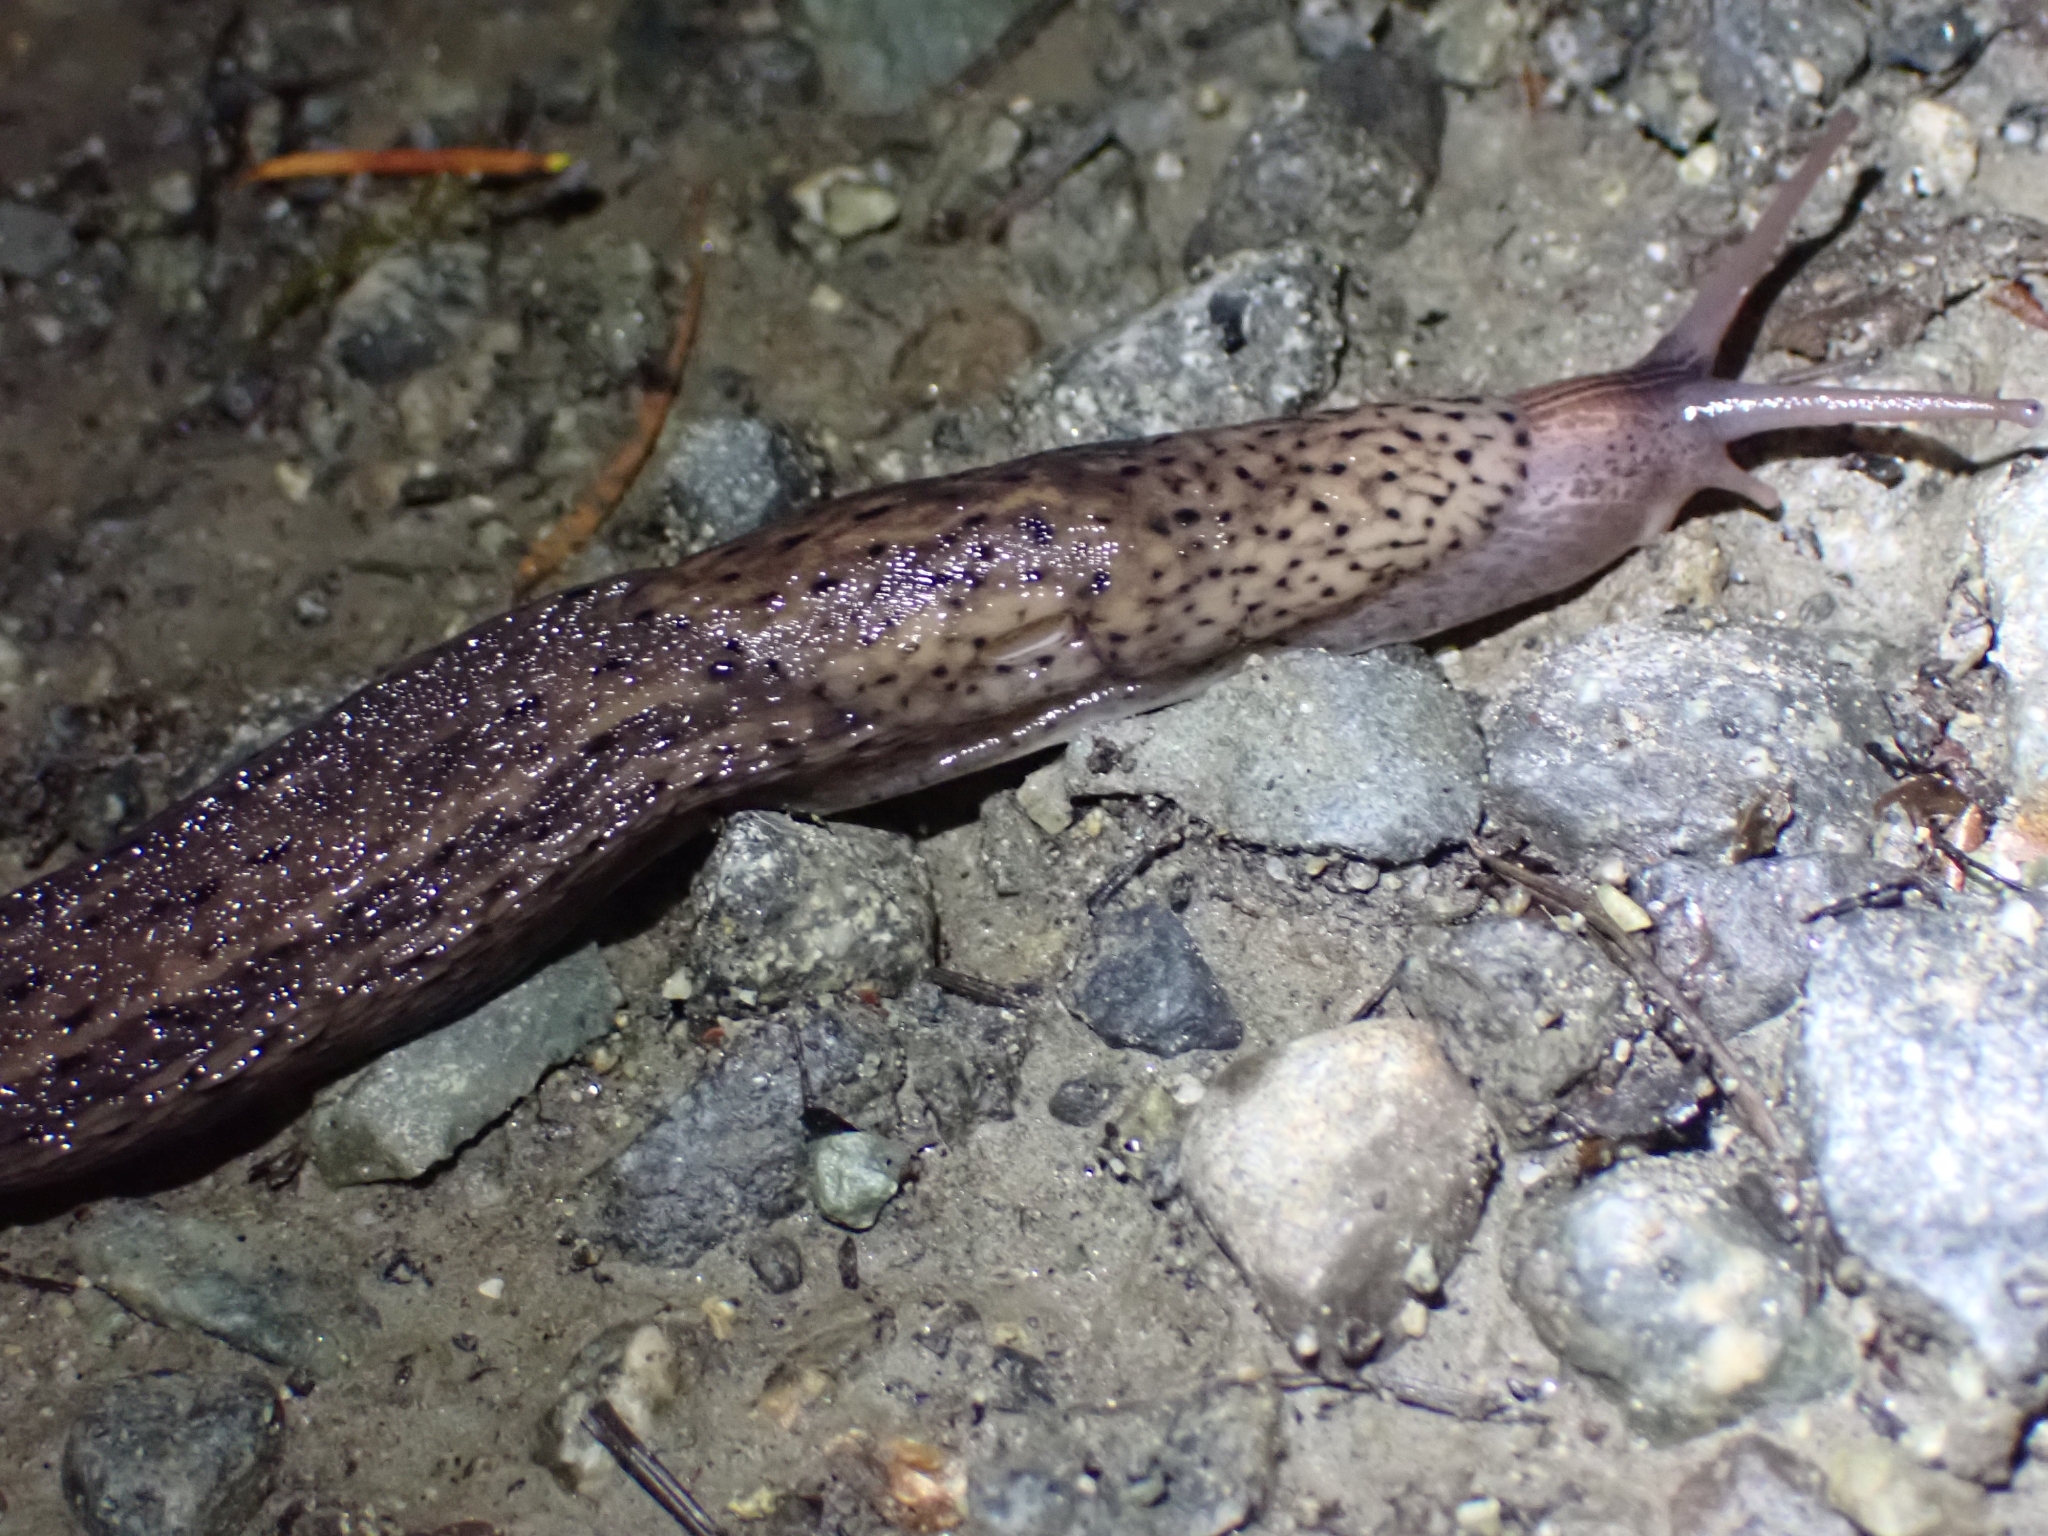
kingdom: Animalia
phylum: Mollusca
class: Gastropoda
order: Stylommatophora
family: Limacidae
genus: Limax
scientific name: Limax maximus
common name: Great grey slug
